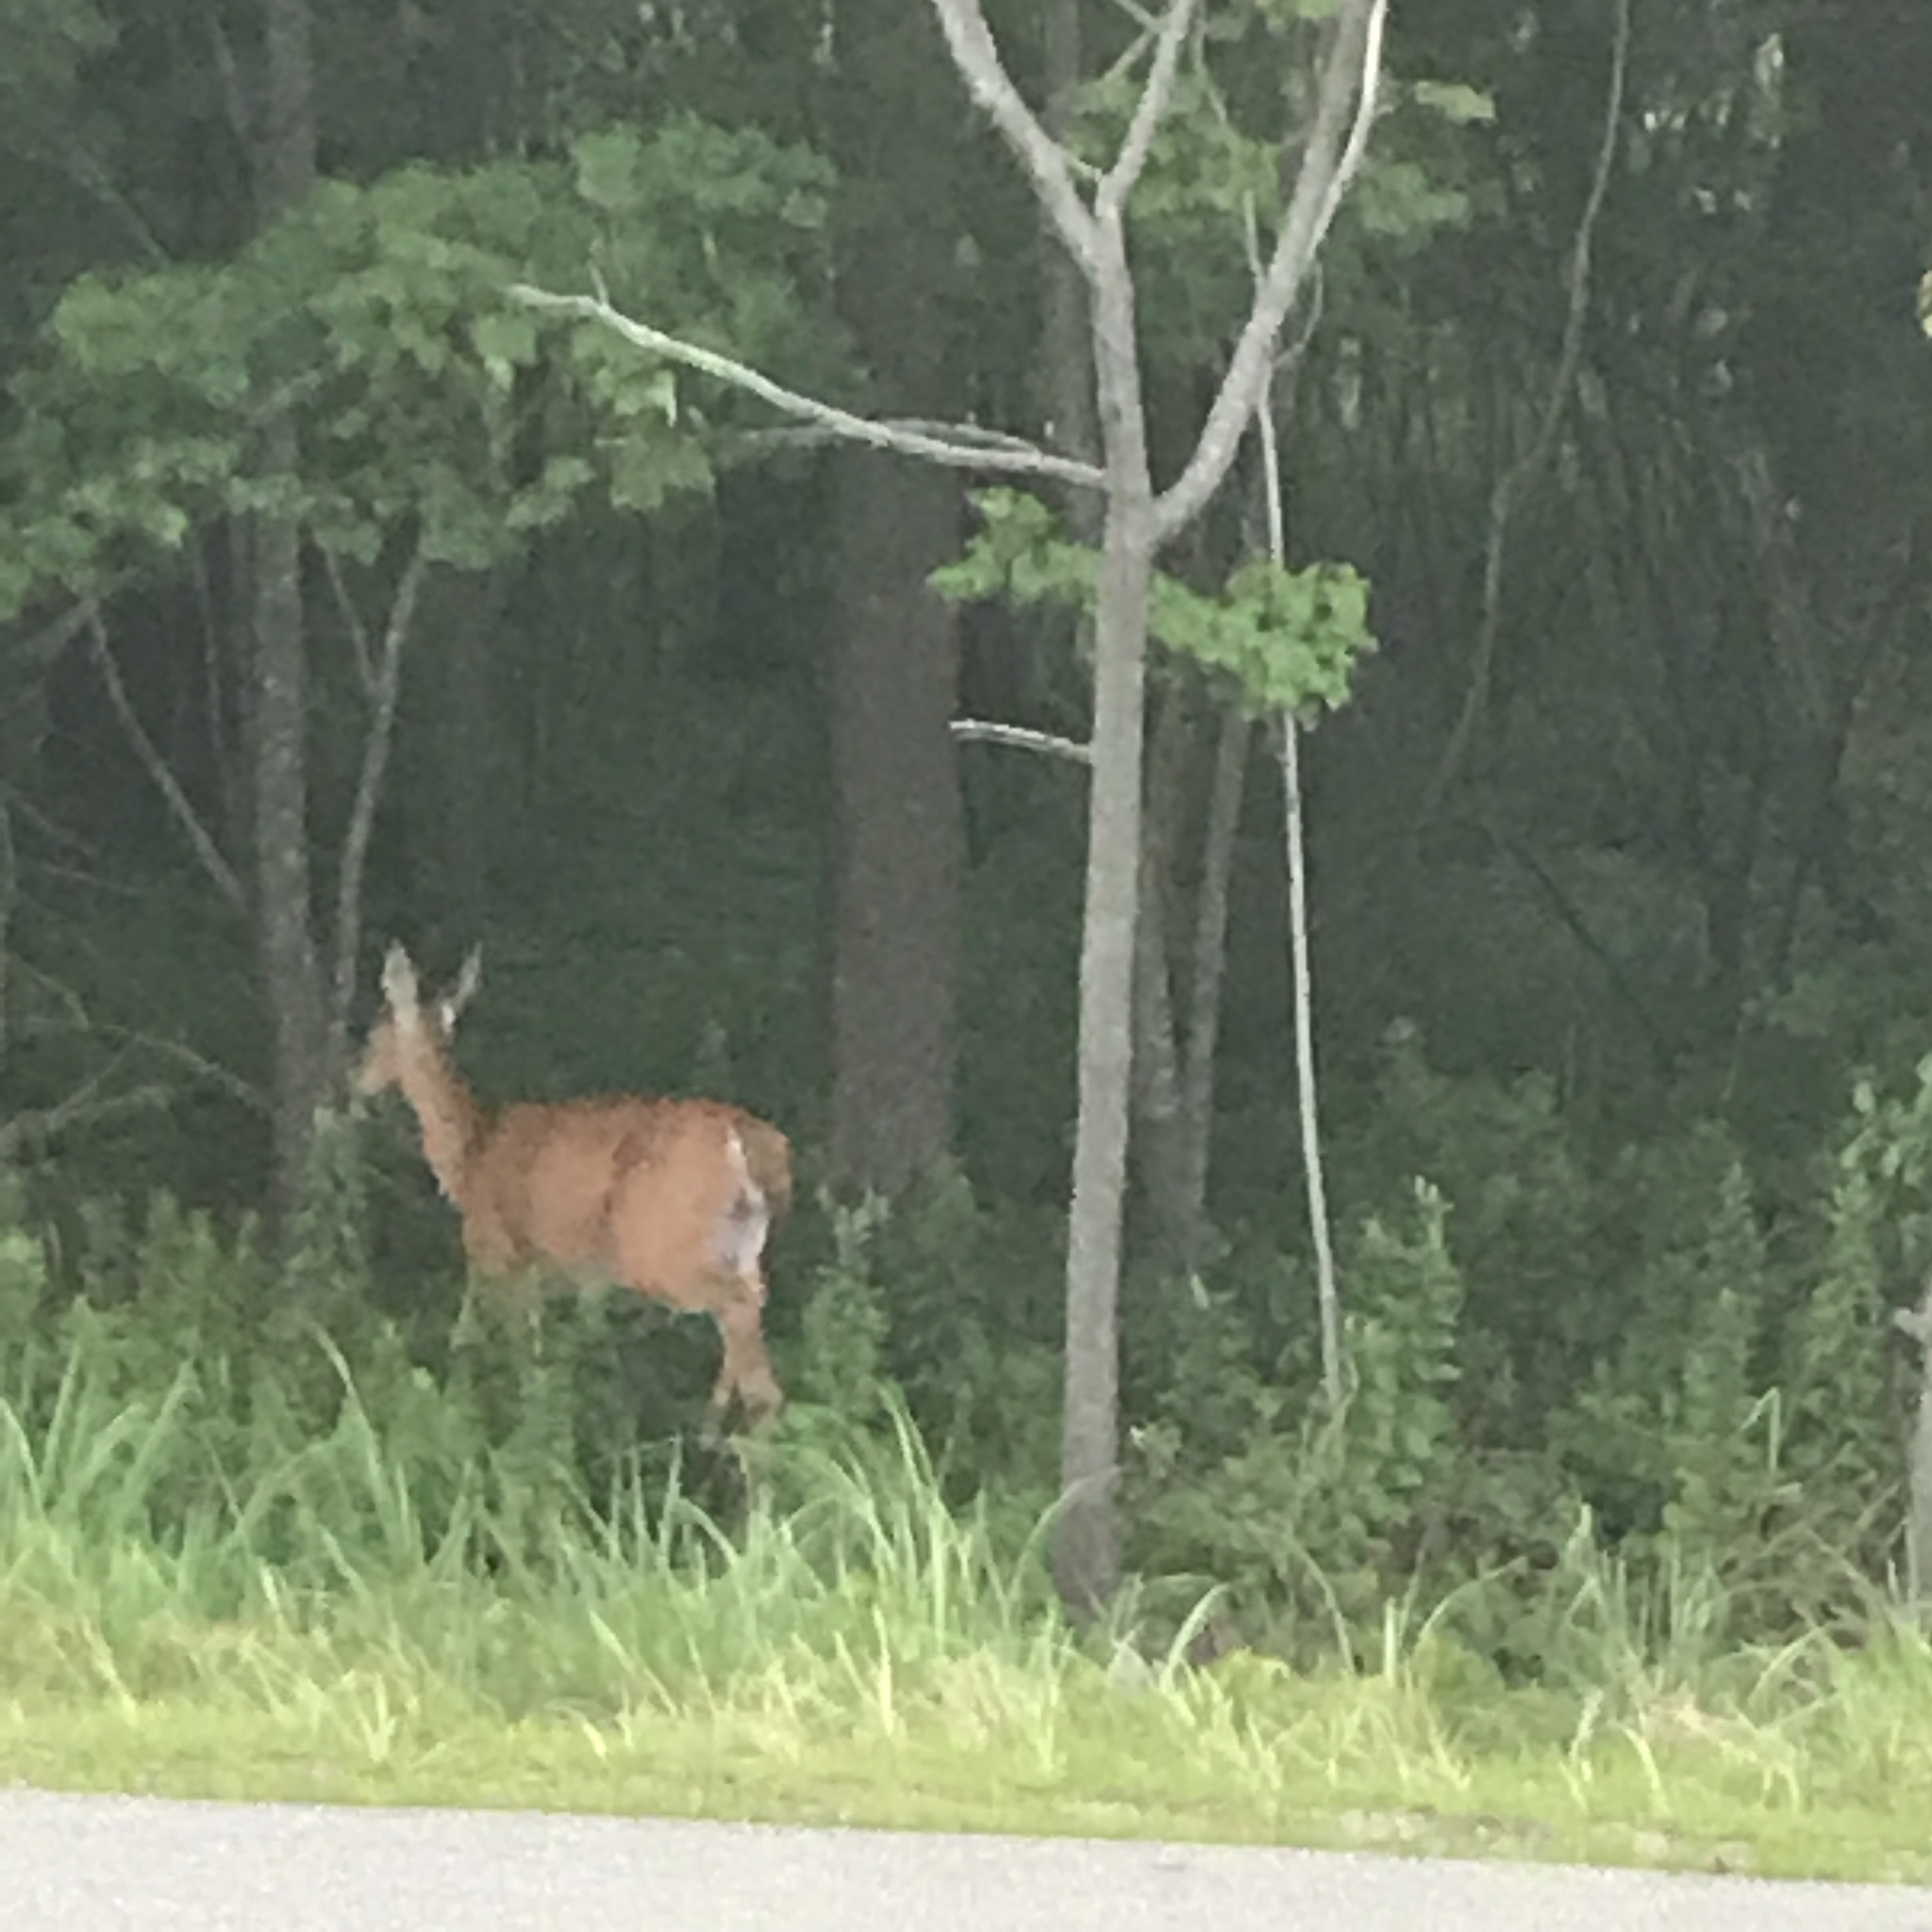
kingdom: Animalia
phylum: Chordata
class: Mammalia
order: Artiodactyla
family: Cervidae
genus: Odocoileus
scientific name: Odocoileus virginianus
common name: White-tailed deer
